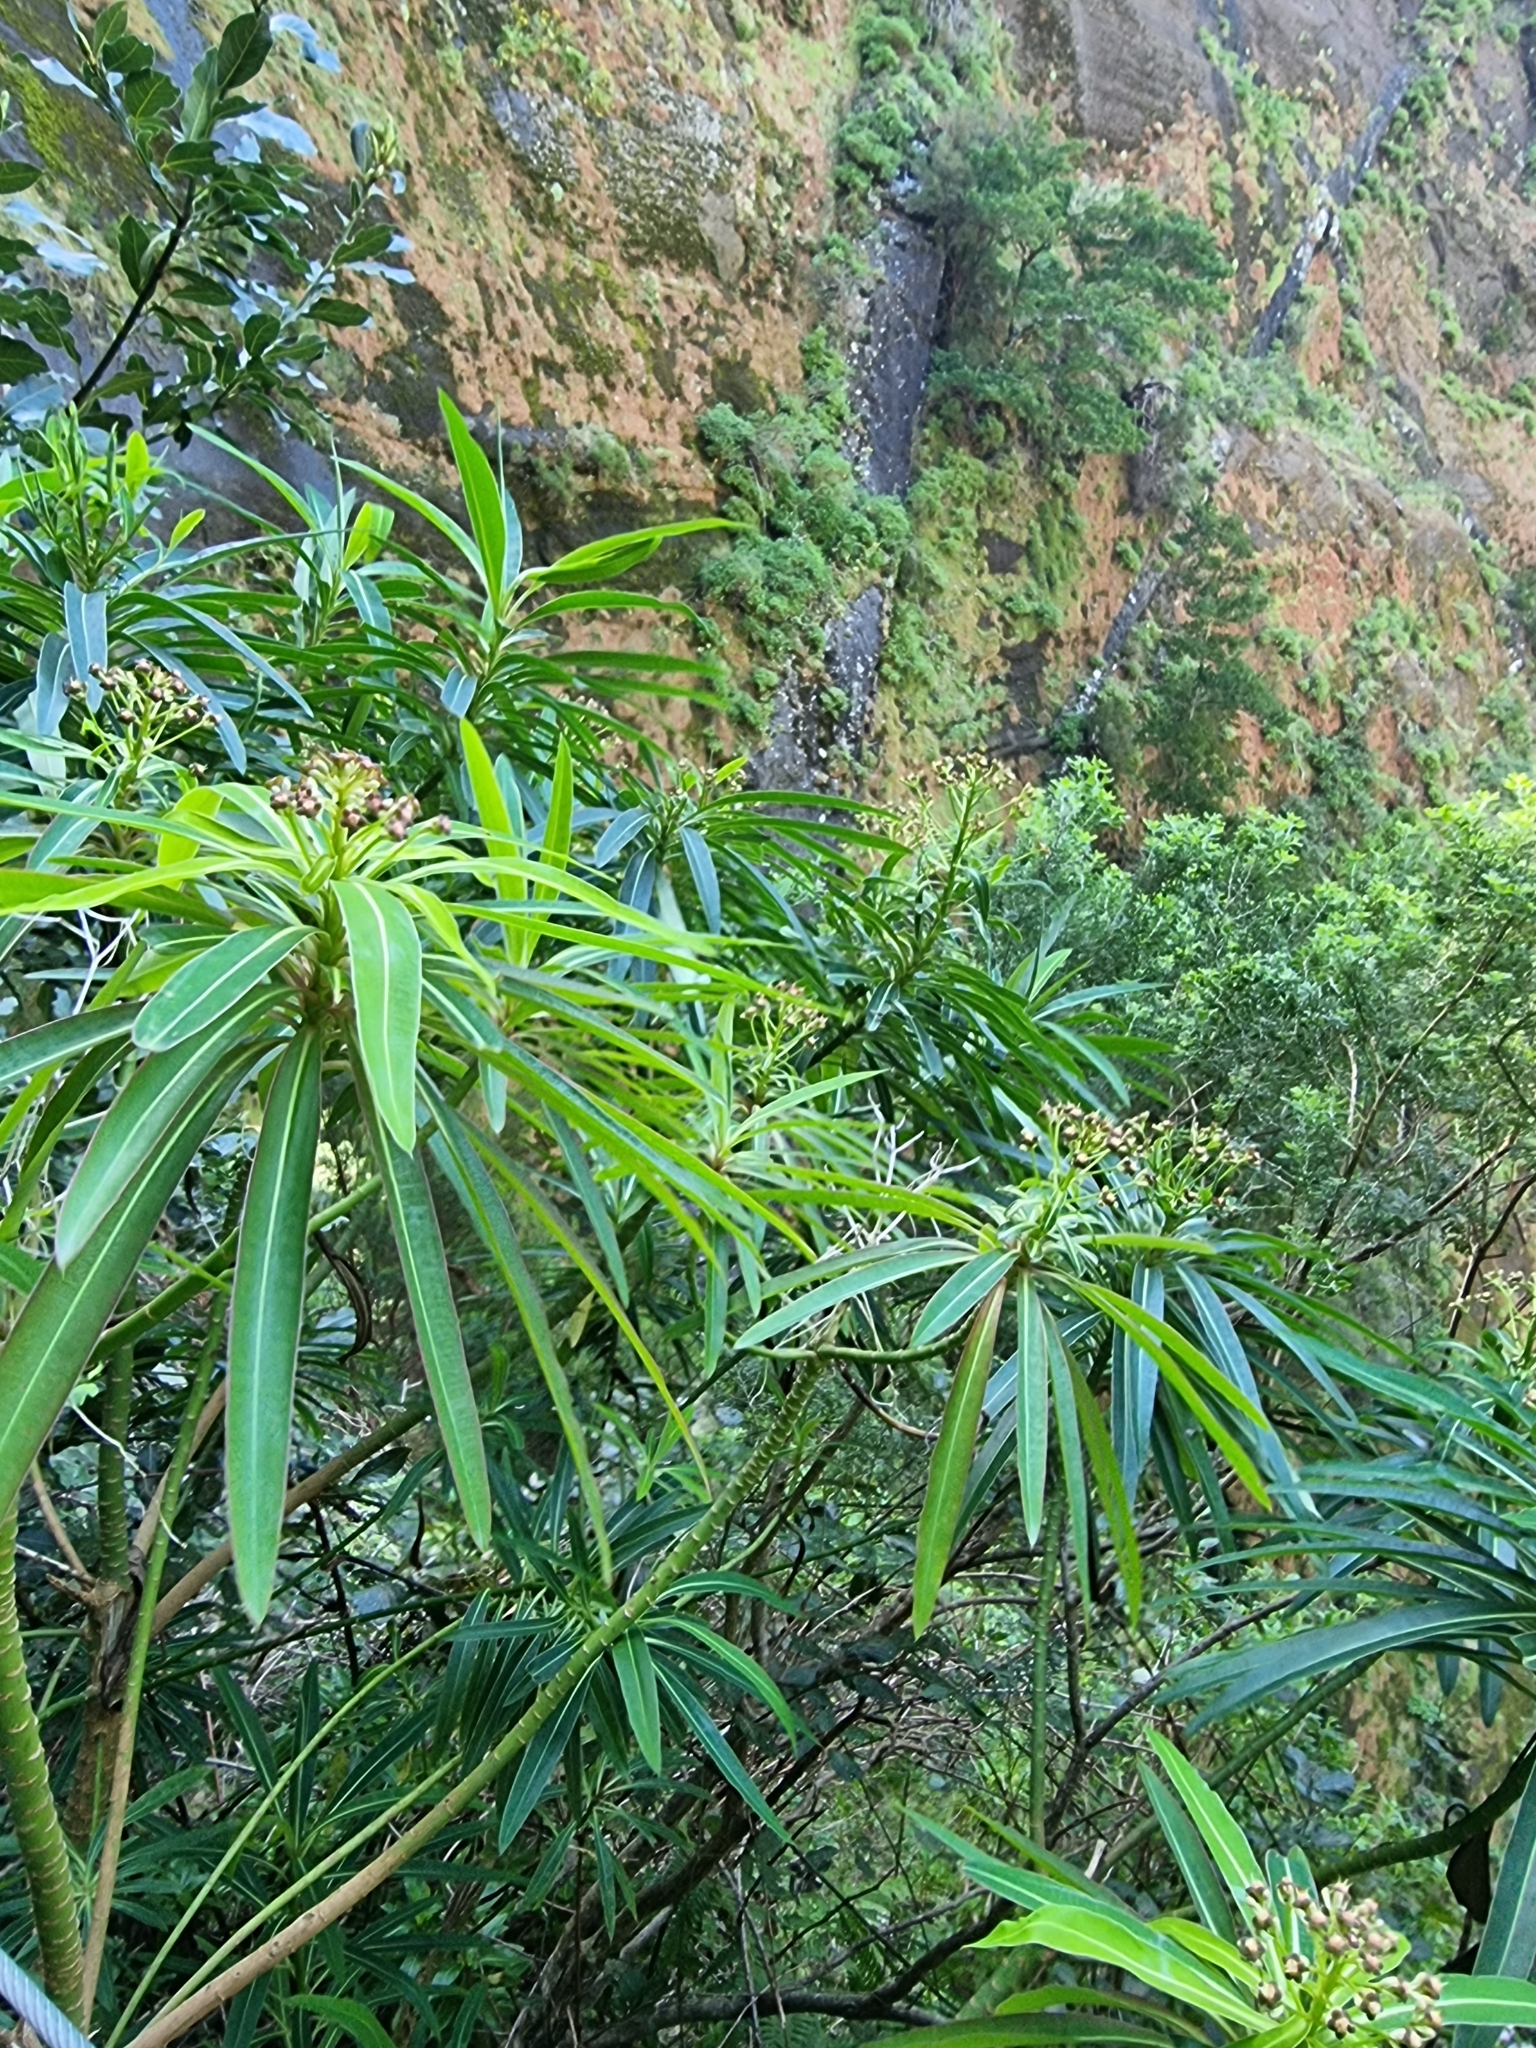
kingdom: Plantae
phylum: Tracheophyta
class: Magnoliopsida
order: Malpighiales
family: Euphorbiaceae
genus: Euphorbia
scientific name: Euphorbia mellifera
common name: Canary spurge
